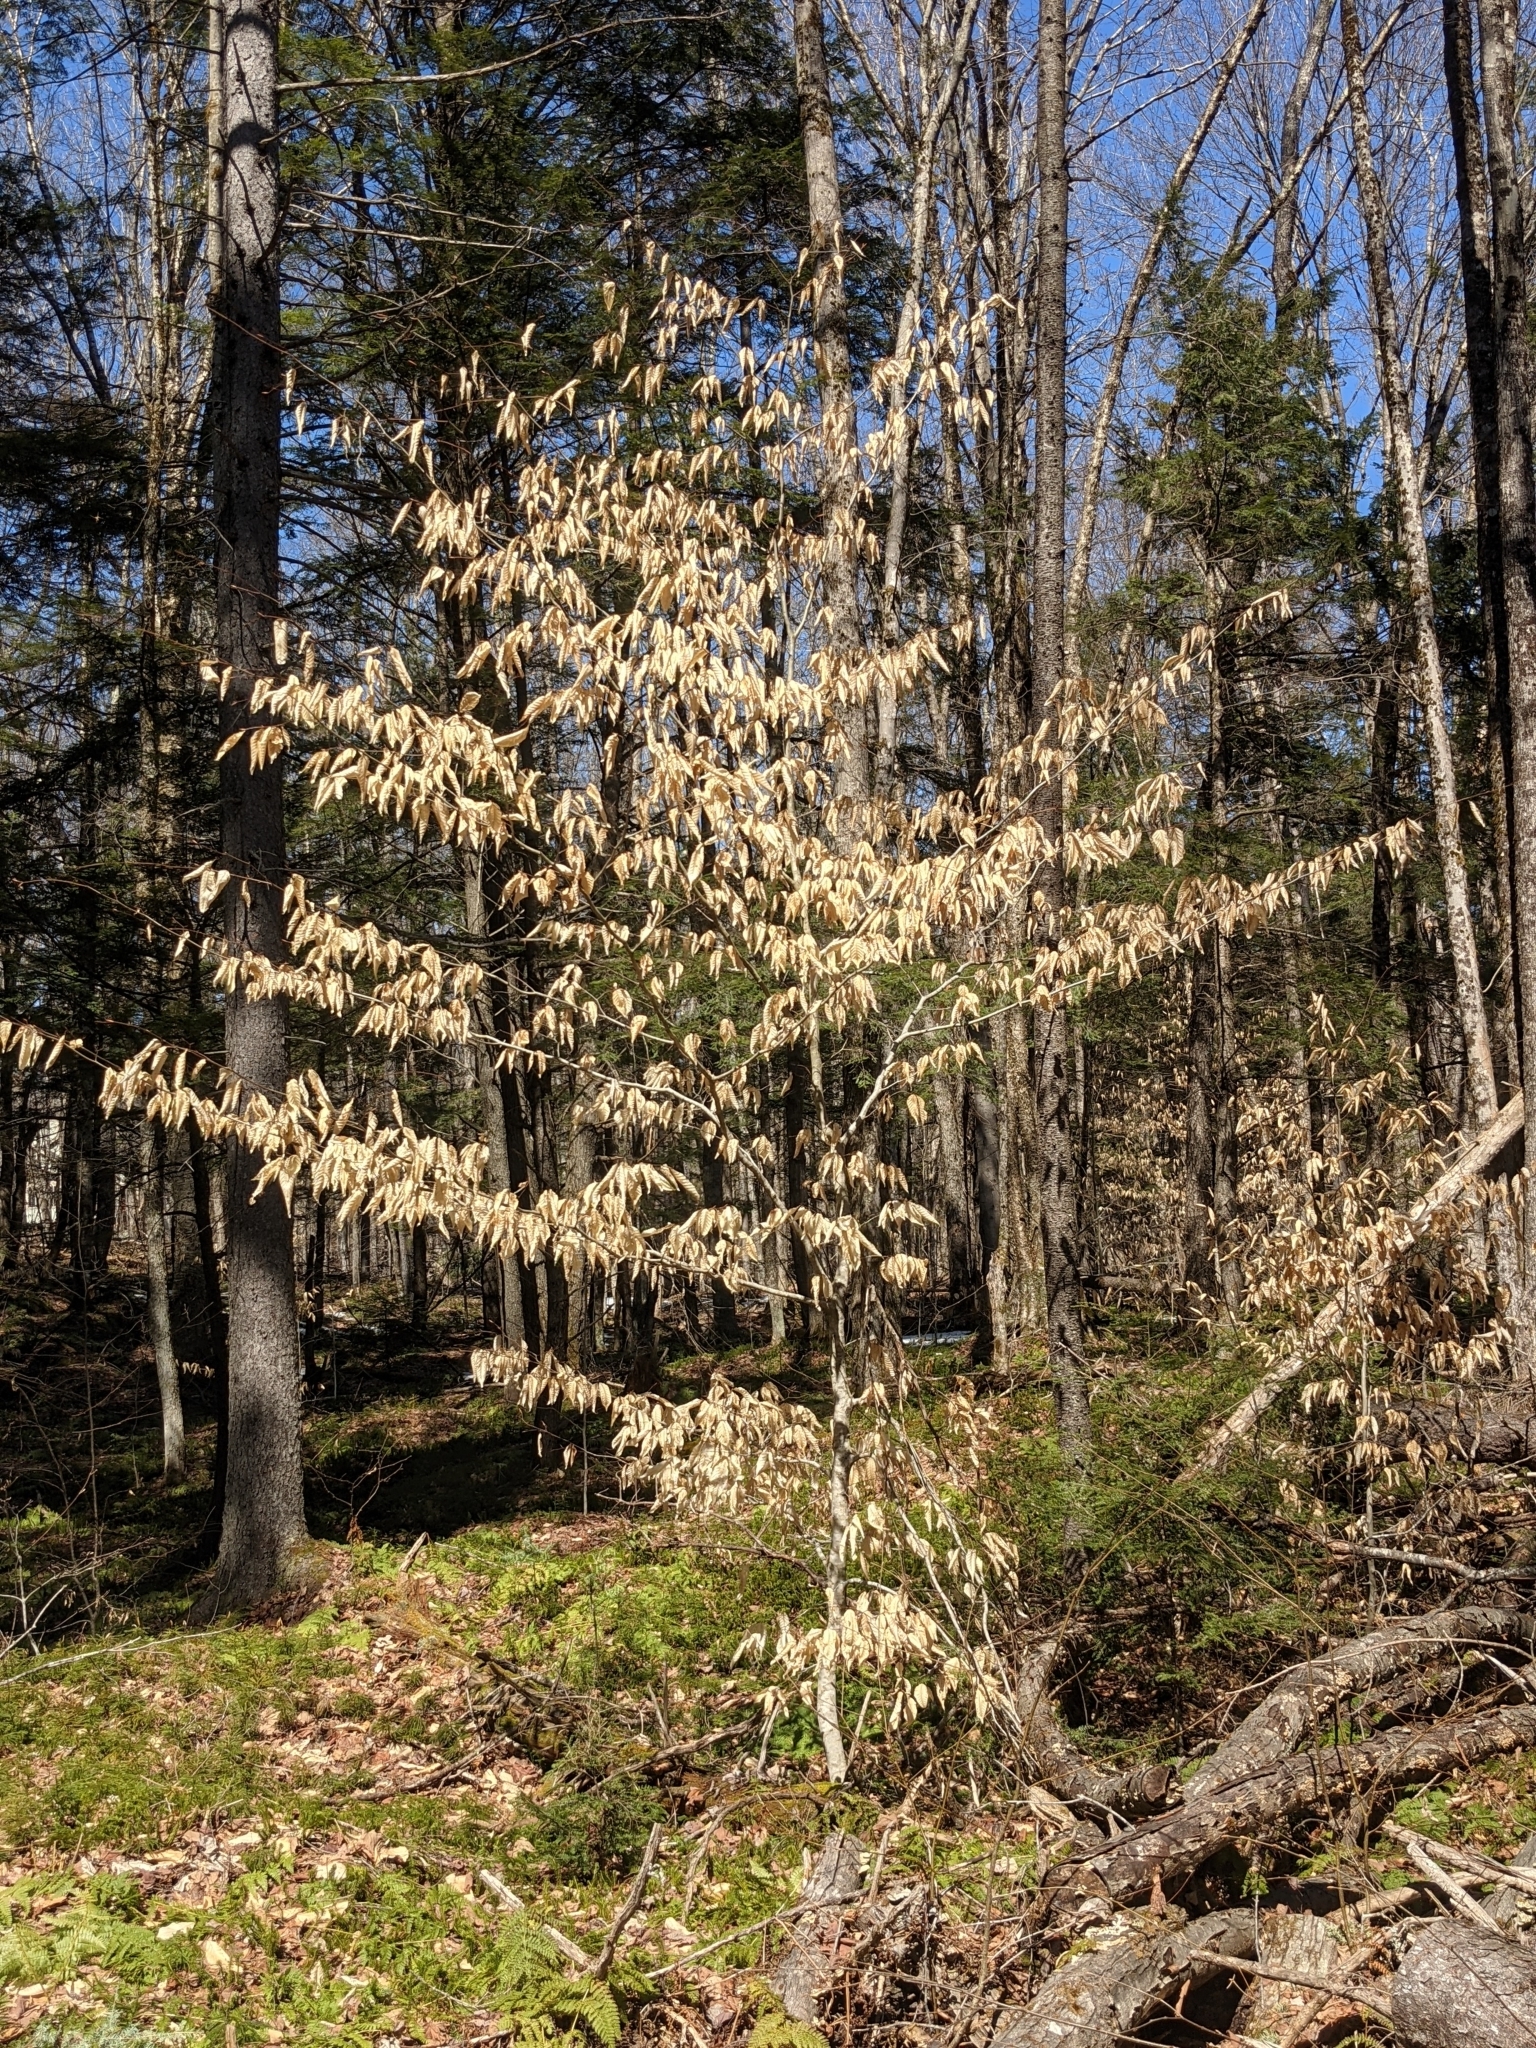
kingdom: Plantae
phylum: Tracheophyta
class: Magnoliopsida
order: Fagales
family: Fagaceae
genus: Fagus
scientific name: Fagus grandifolia
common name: American beech
